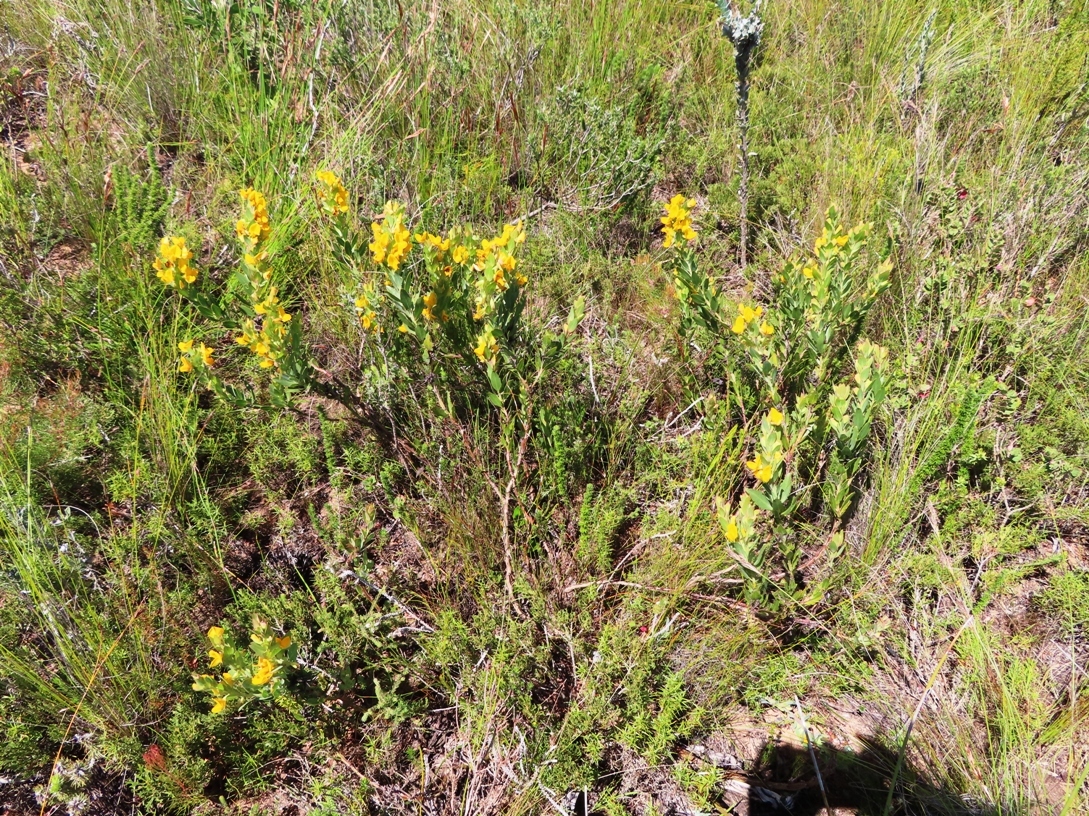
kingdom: Plantae
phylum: Tracheophyta
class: Magnoliopsida
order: Fabales
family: Fabaceae
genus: Rafnia
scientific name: Rafnia crassifolia
